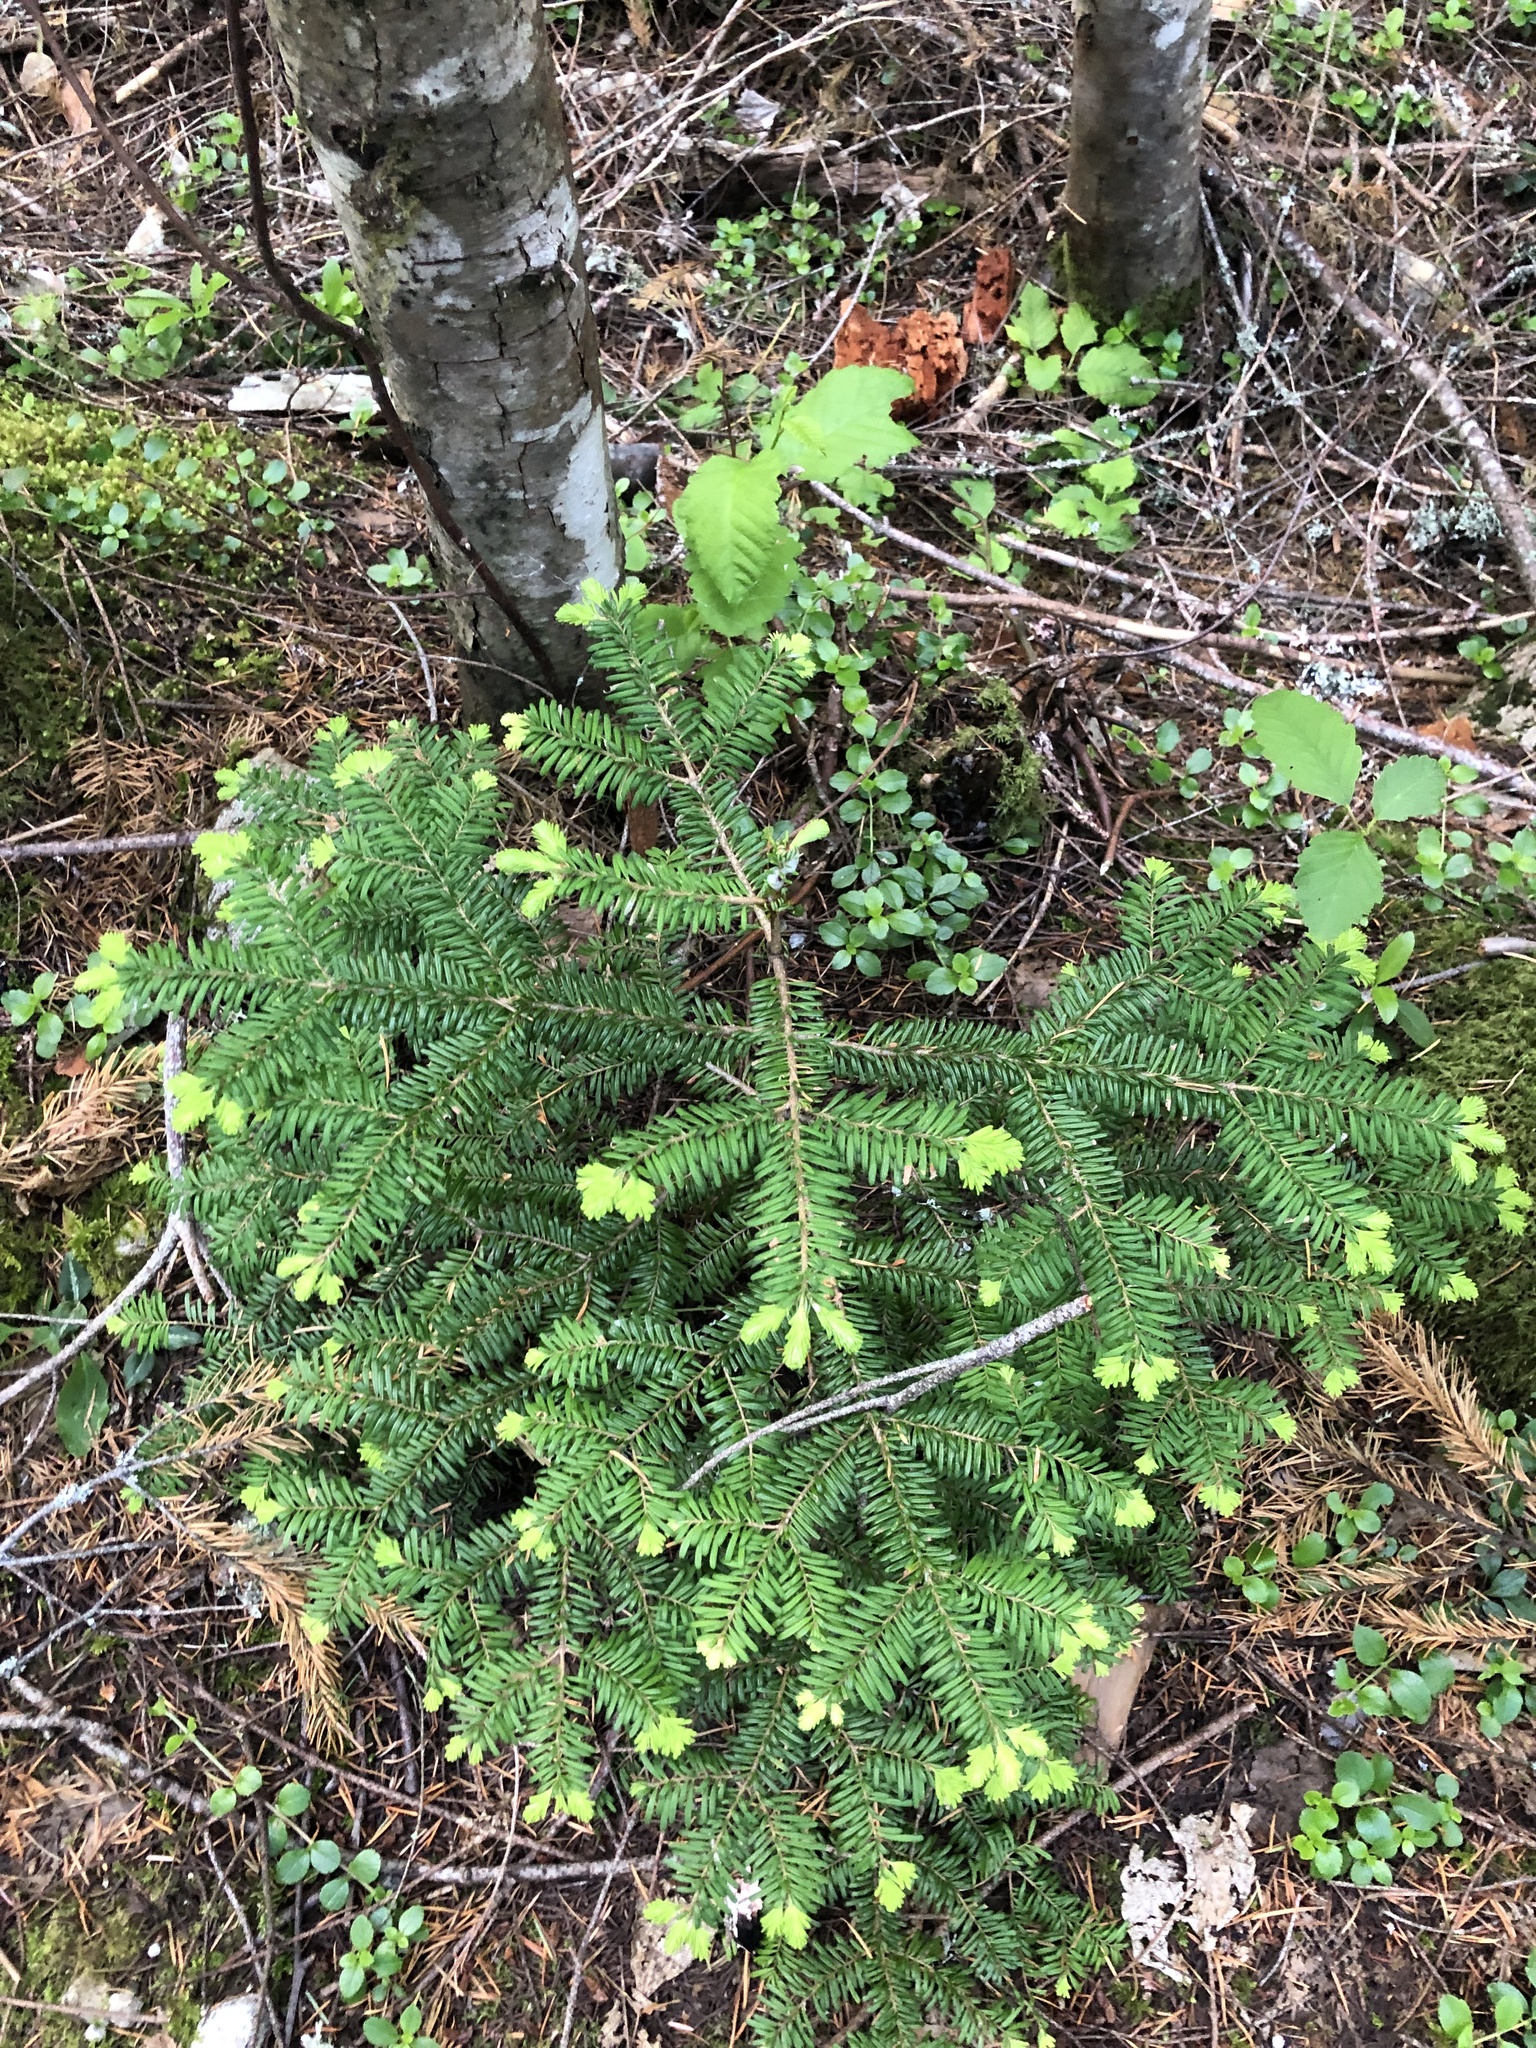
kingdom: Plantae
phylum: Tracheophyta
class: Pinopsida
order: Pinales
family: Pinaceae
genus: Abies
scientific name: Abies amabilis
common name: Pacific silver fir
